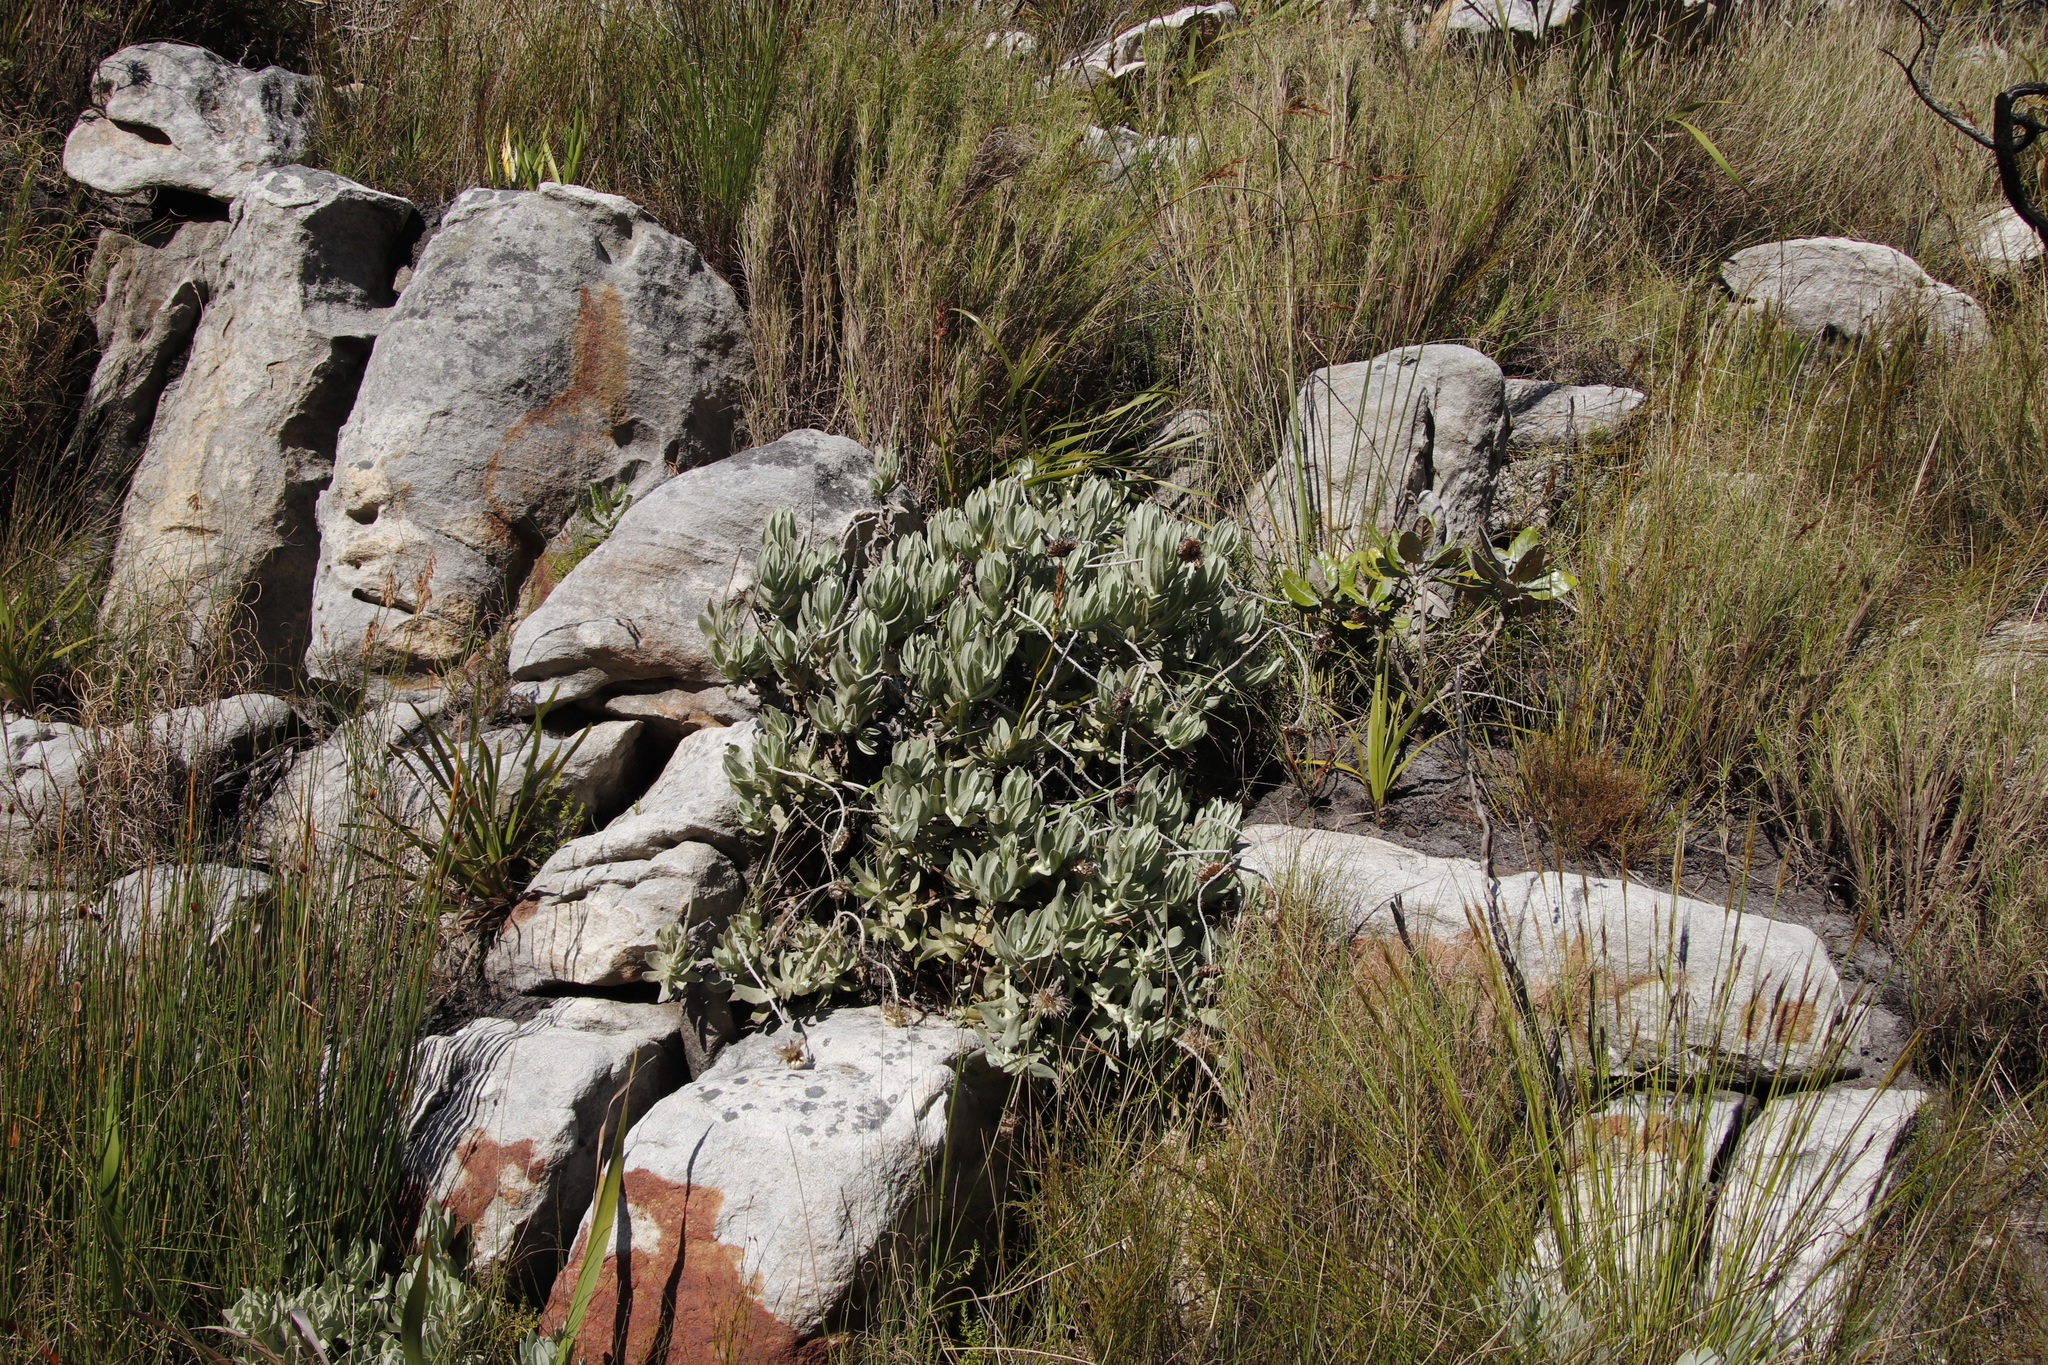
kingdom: Plantae
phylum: Tracheophyta
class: Magnoliopsida
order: Asterales
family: Asteraceae
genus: Syncarpha
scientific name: Syncarpha speciosissima
